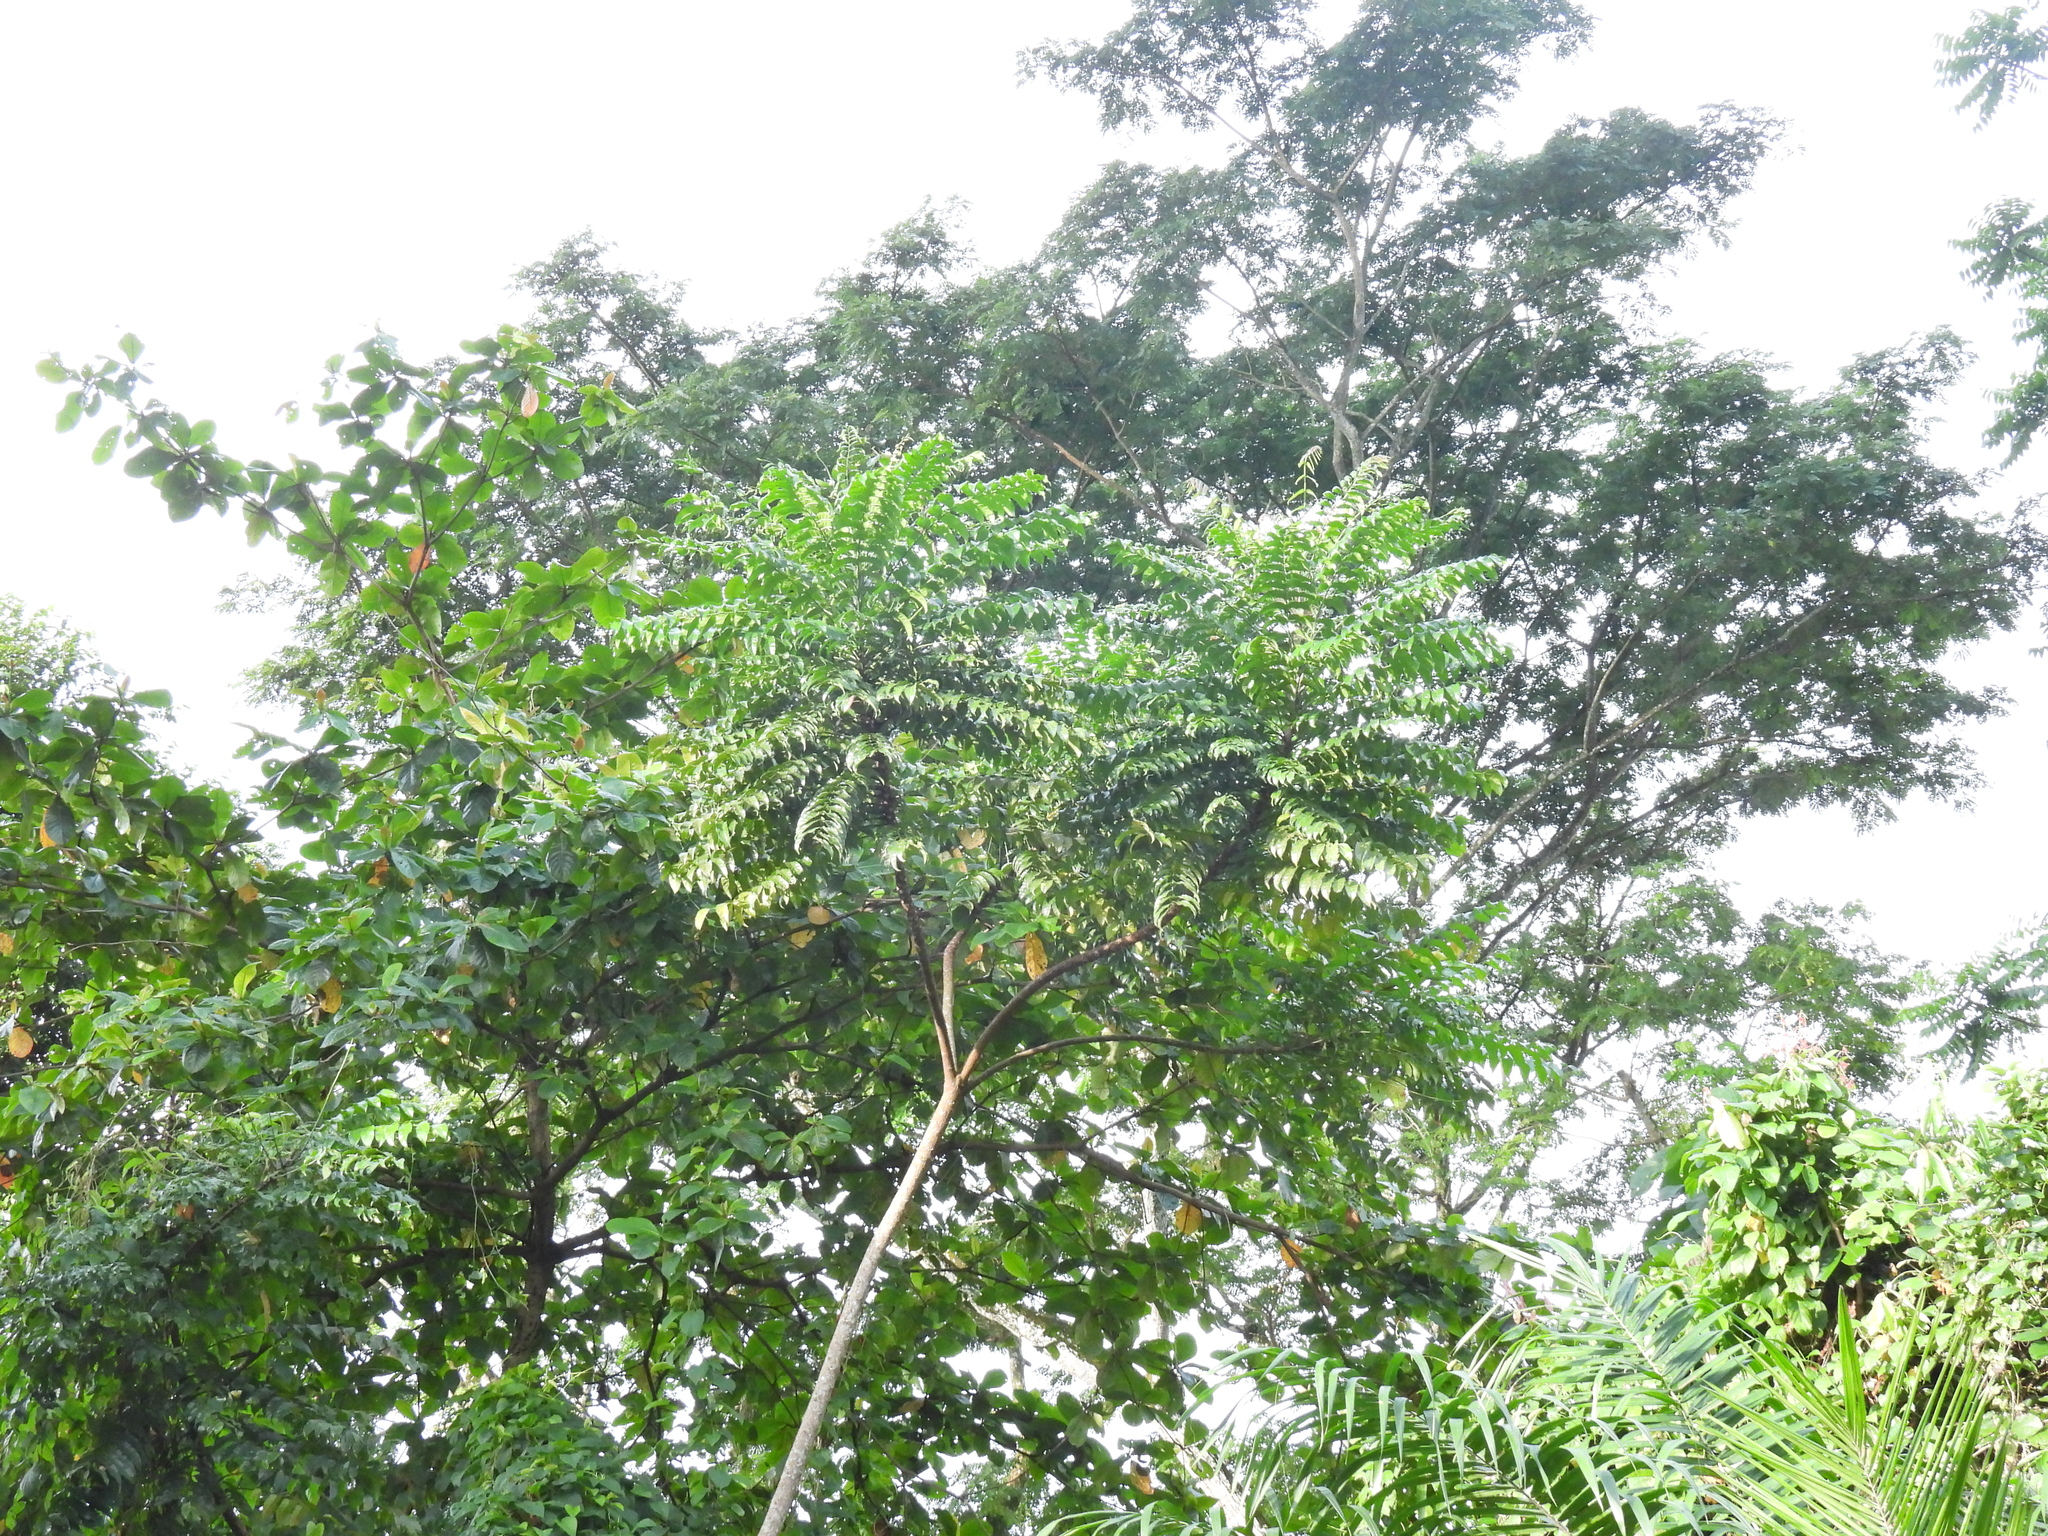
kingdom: Plantae
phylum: Tracheophyta
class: Magnoliopsida
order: Sapindales
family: Meliaceae
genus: Chukrasia
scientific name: Chukrasia tabularis
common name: Chittagong wood
